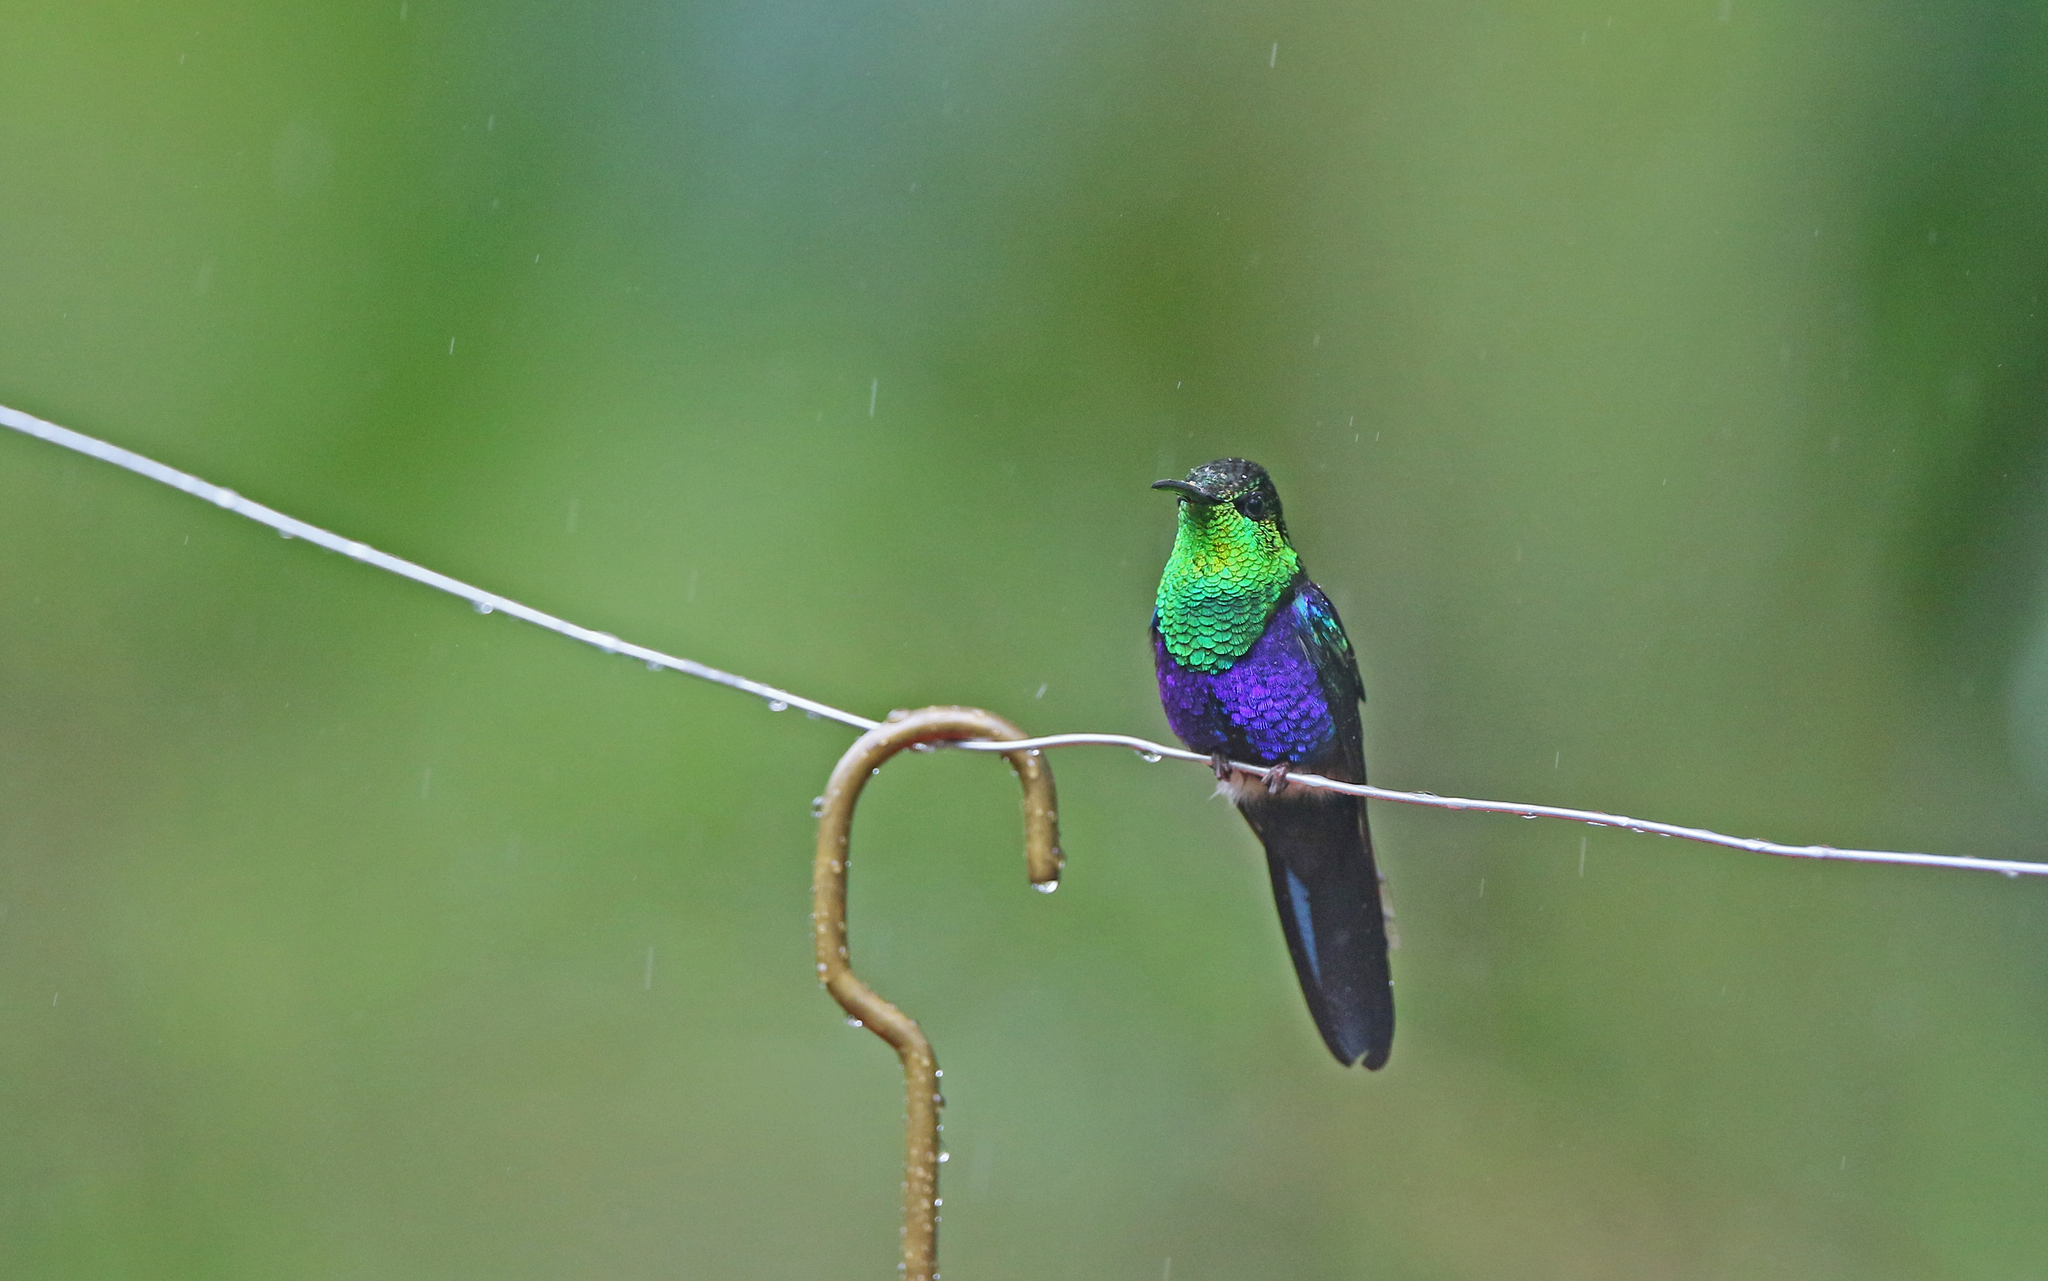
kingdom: Animalia
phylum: Chordata
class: Aves
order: Apodiformes
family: Trochilidae
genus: Thalurania
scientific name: Thalurania furcata
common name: Fork-tailed woodnymph
